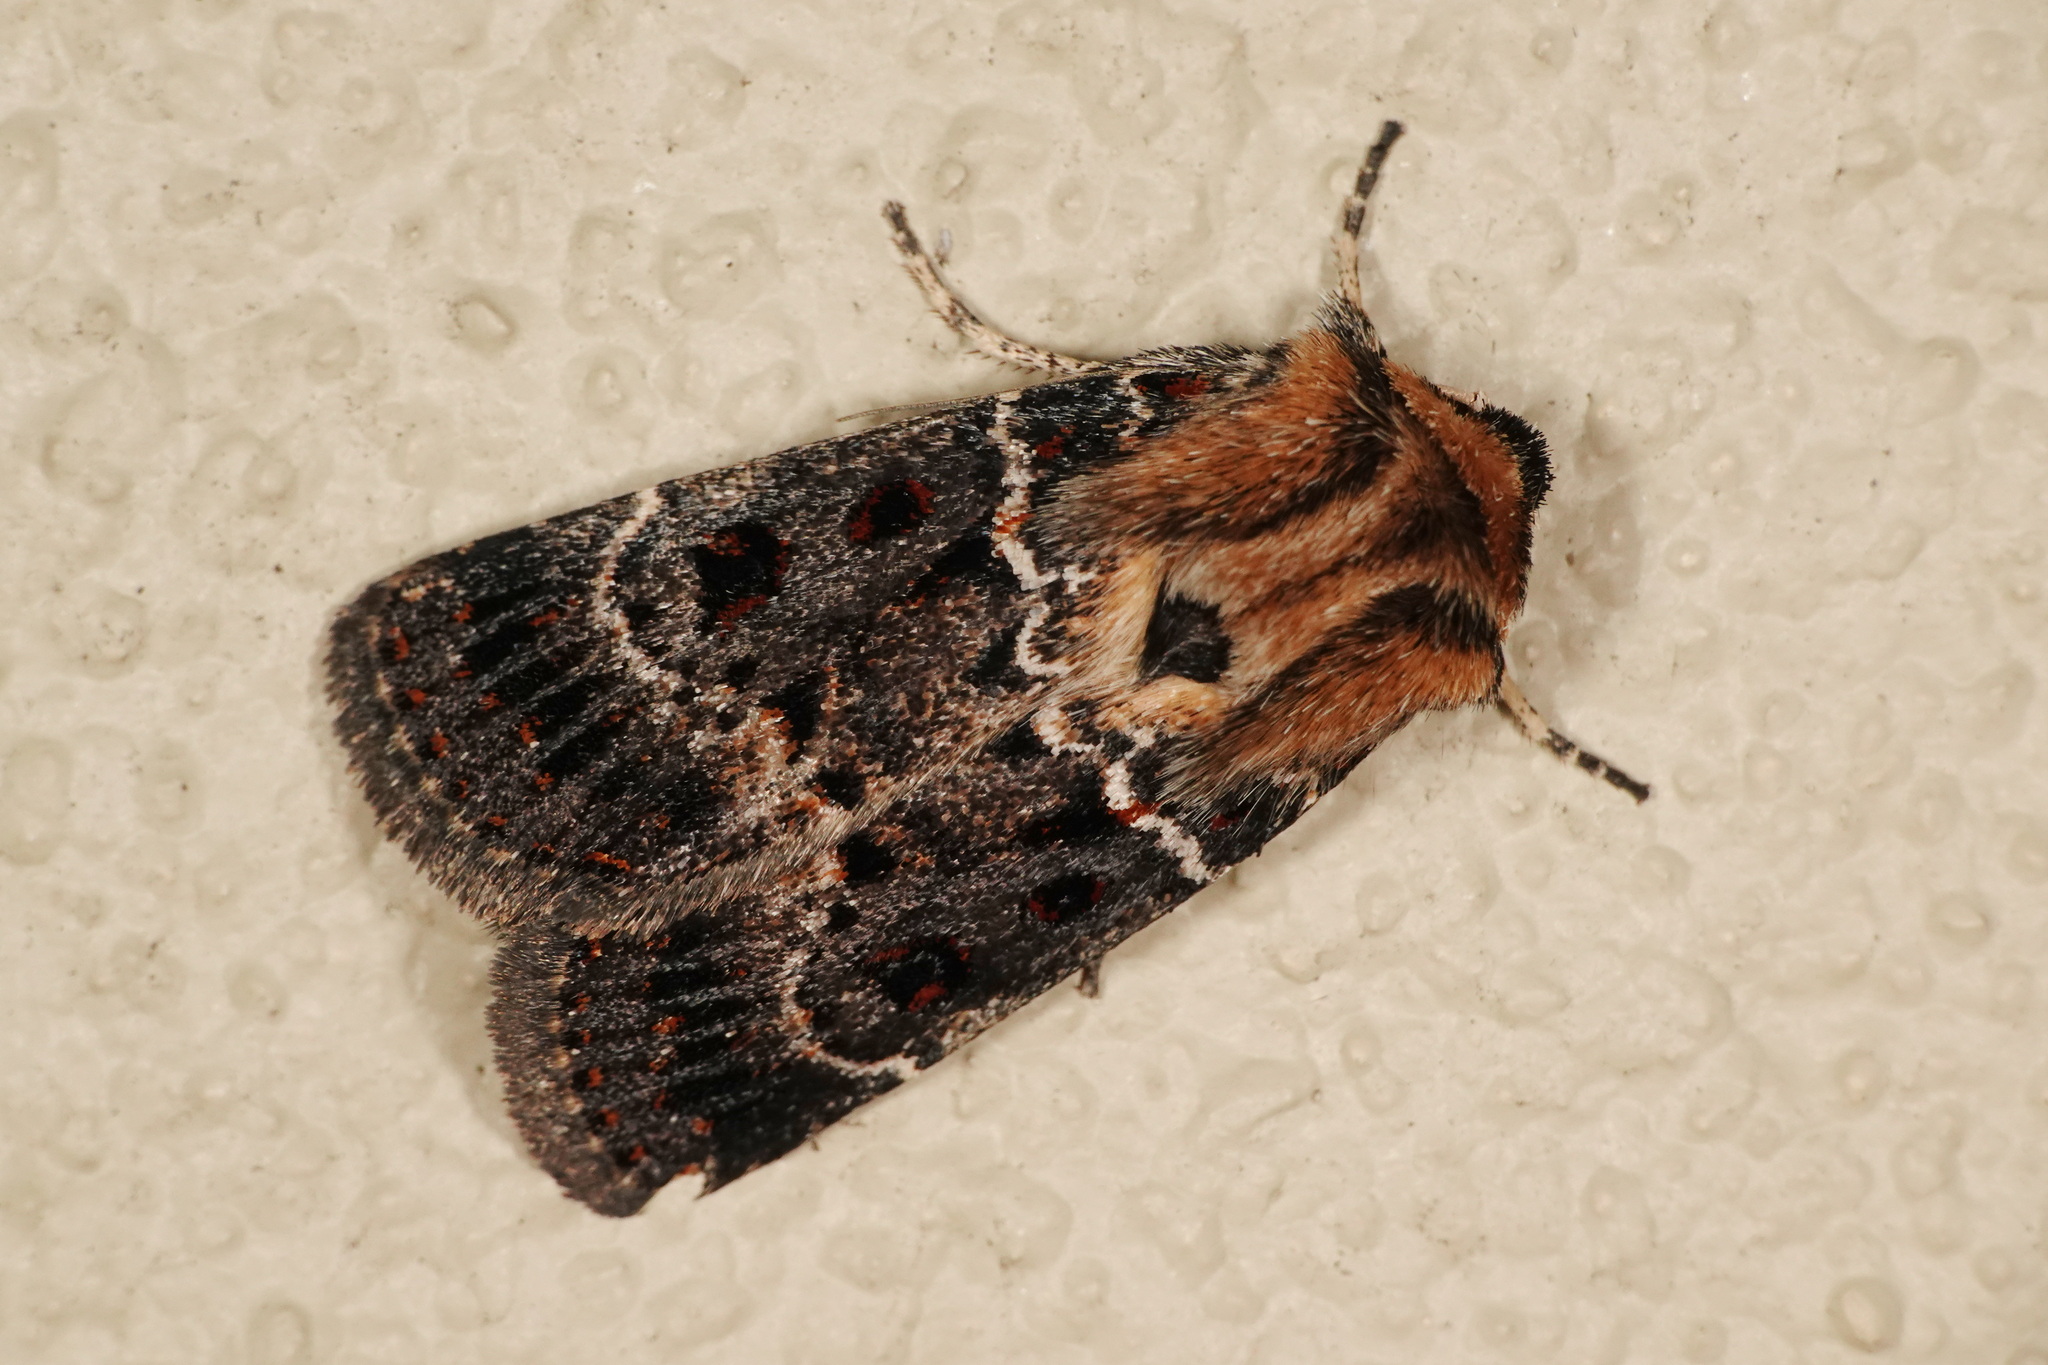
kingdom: Animalia
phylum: Arthropoda
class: Insecta
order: Lepidoptera
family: Noctuidae
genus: Proteuxoa
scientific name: Proteuxoa sanguinipuncta
